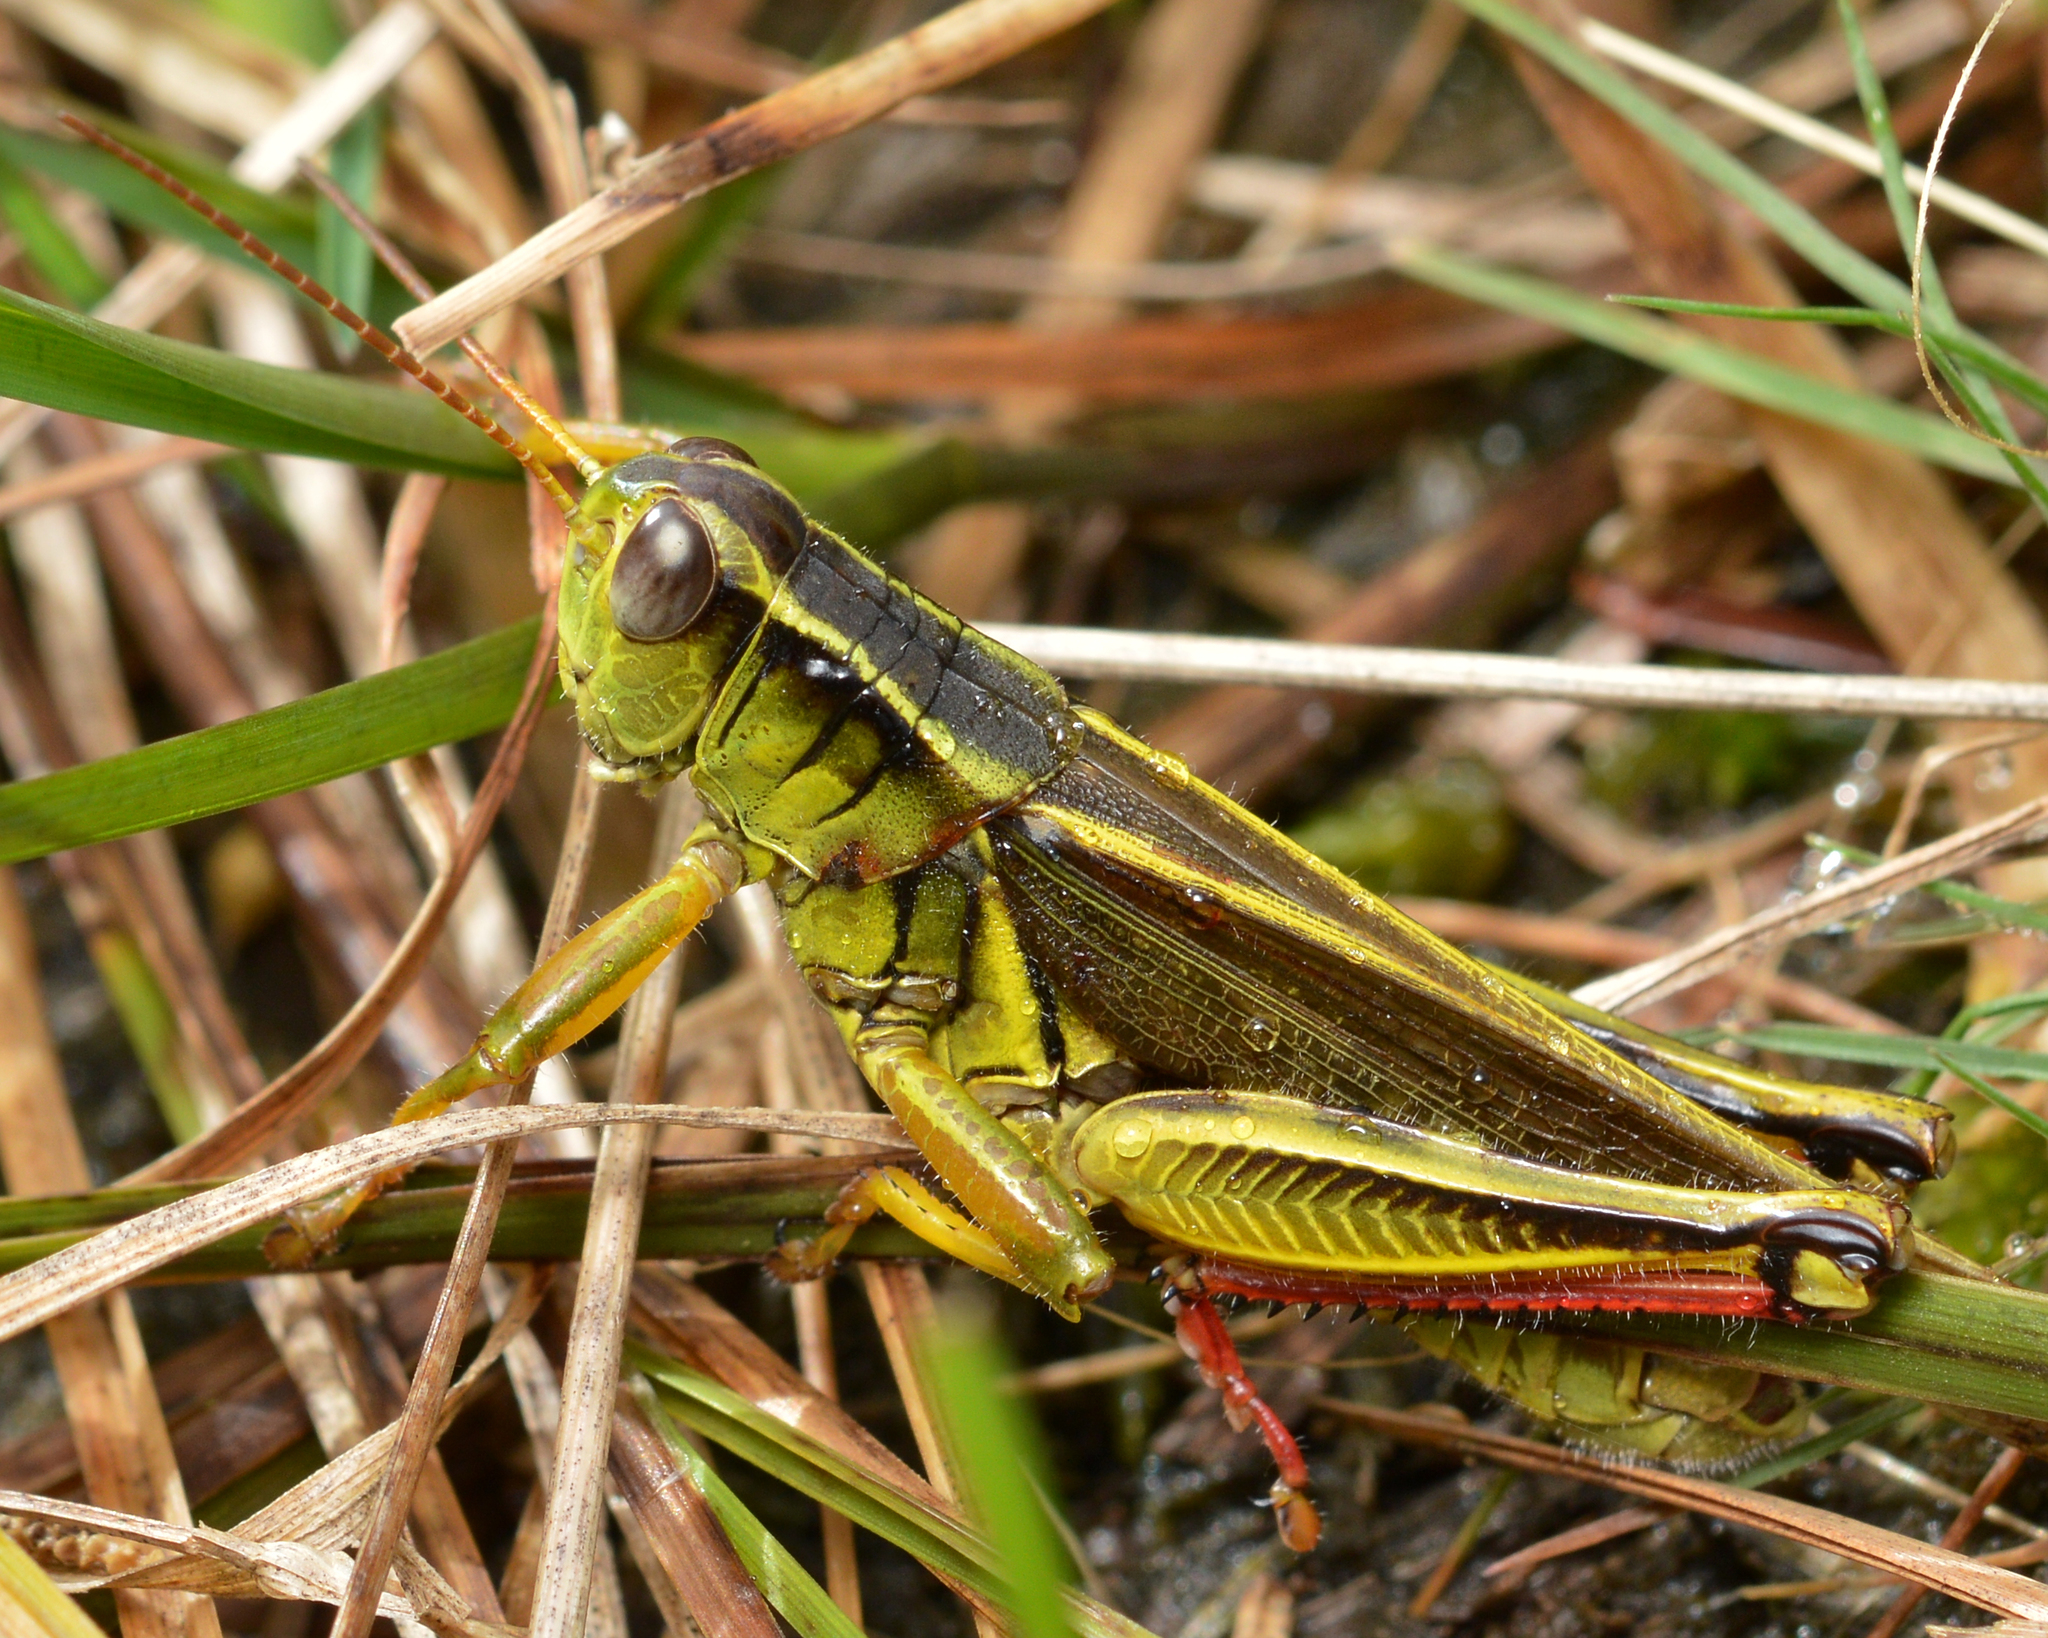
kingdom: Animalia
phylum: Arthropoda
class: Insecta
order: Orthoptera
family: Acrididae
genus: Melanoplus
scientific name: Melanoplus bivittatus
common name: Two-striped grasshopper
